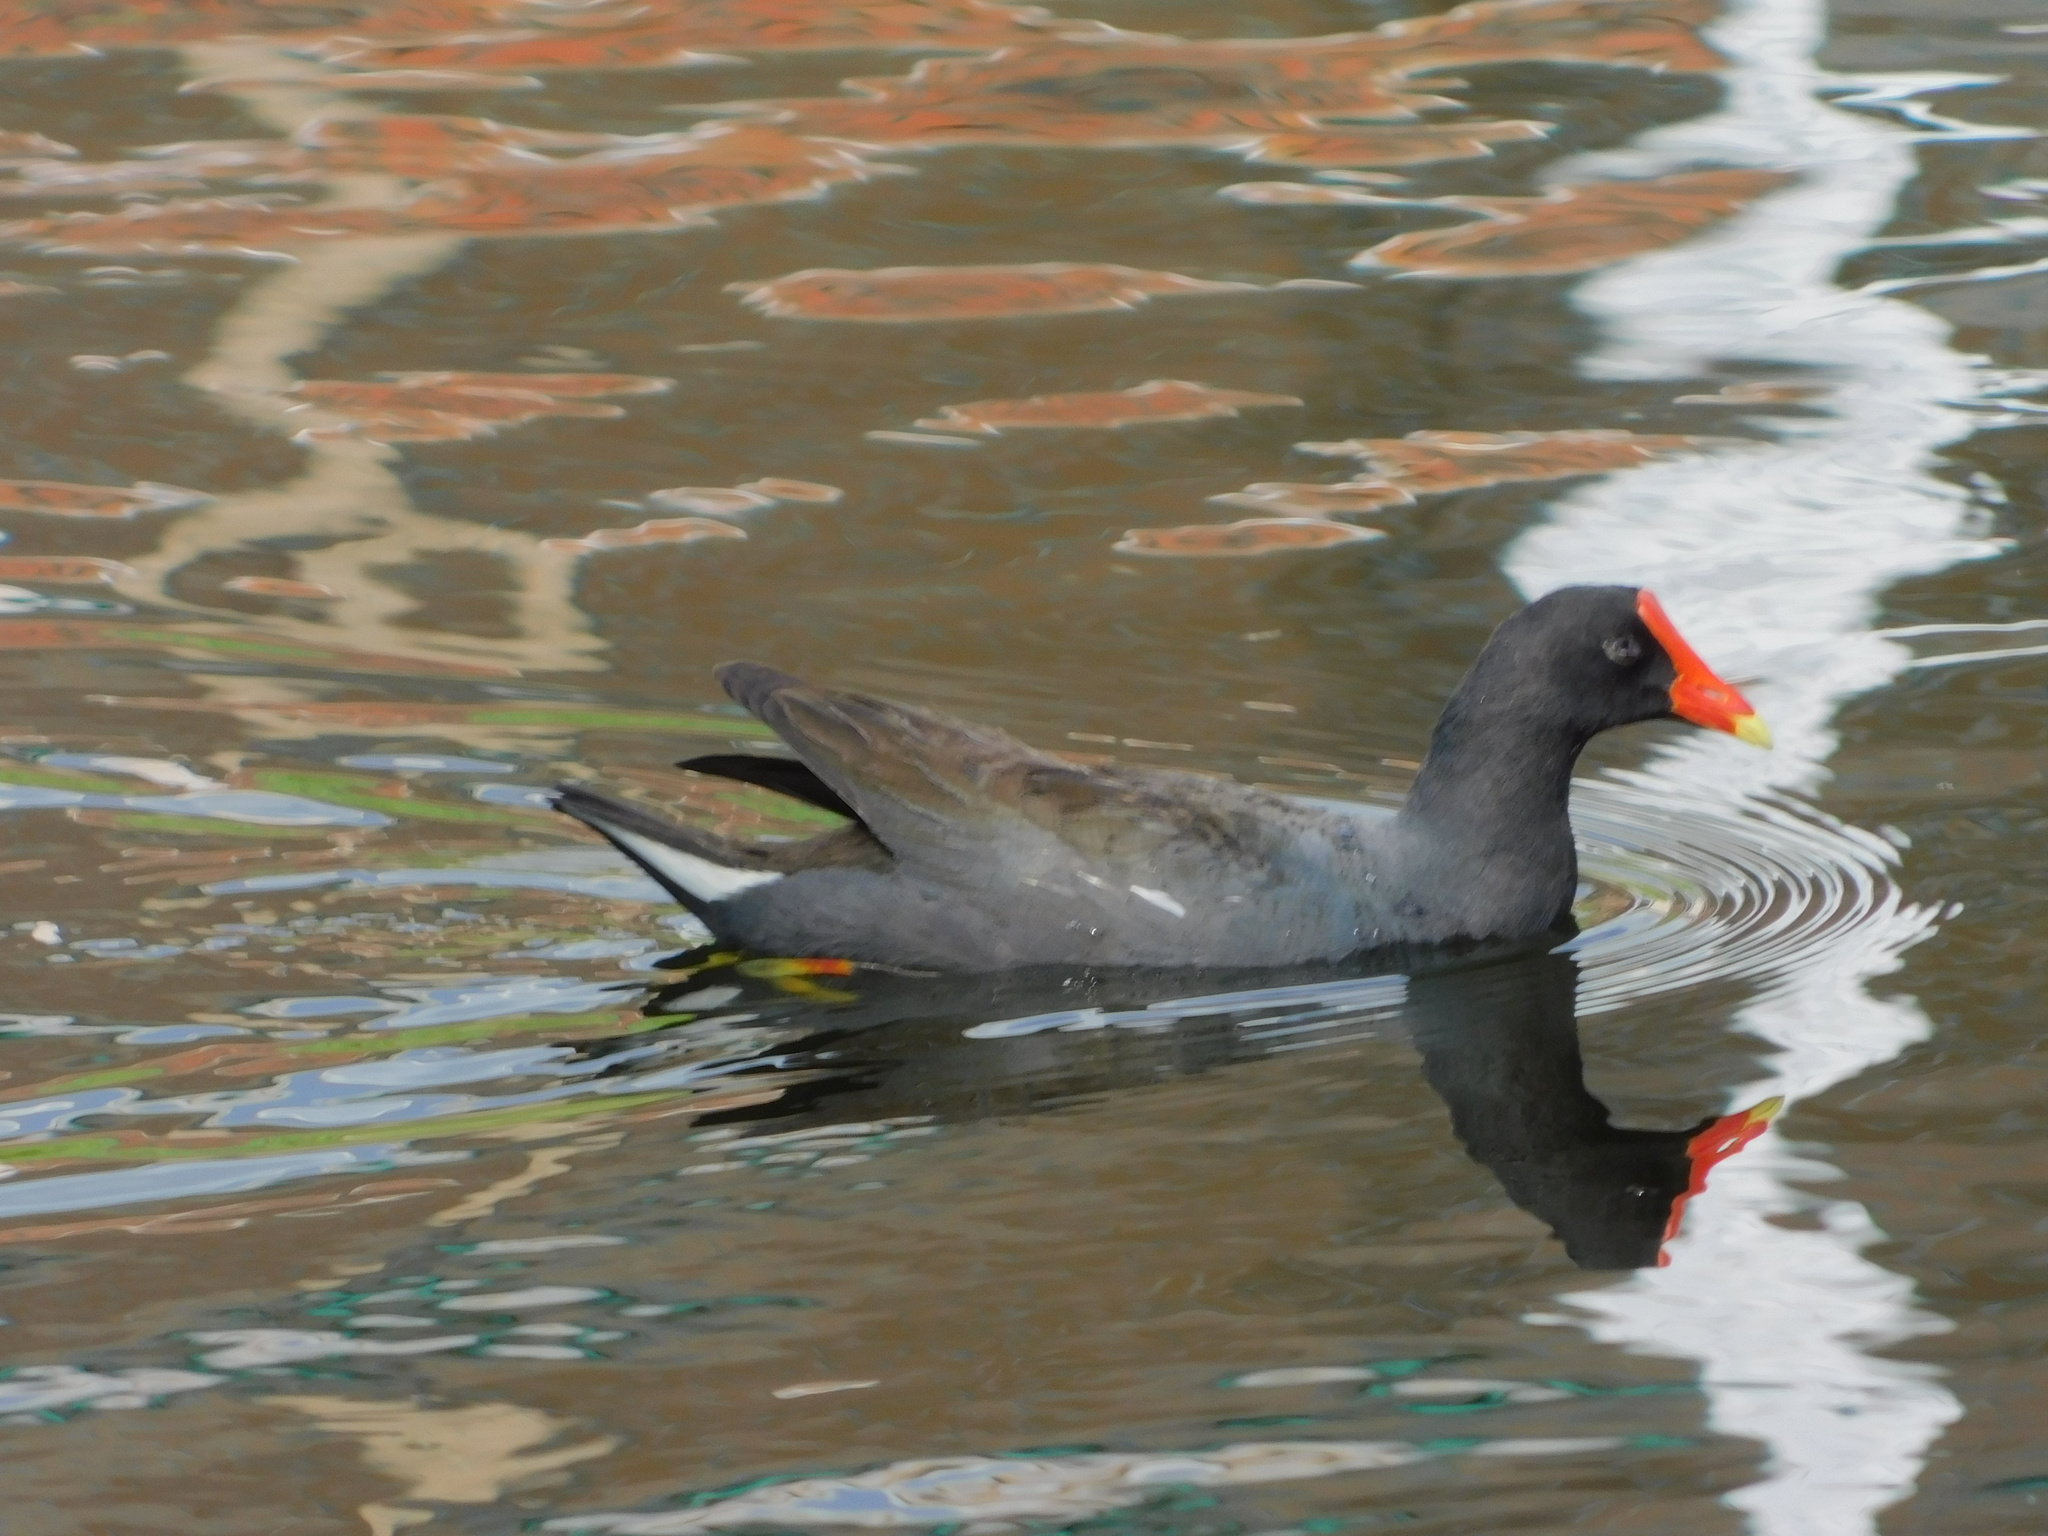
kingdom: Animalia
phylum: Chordata
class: Aves
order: Gruiformes
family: Rallidae
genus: Gallinula
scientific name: Gallinula chloropus
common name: Common moorhen
